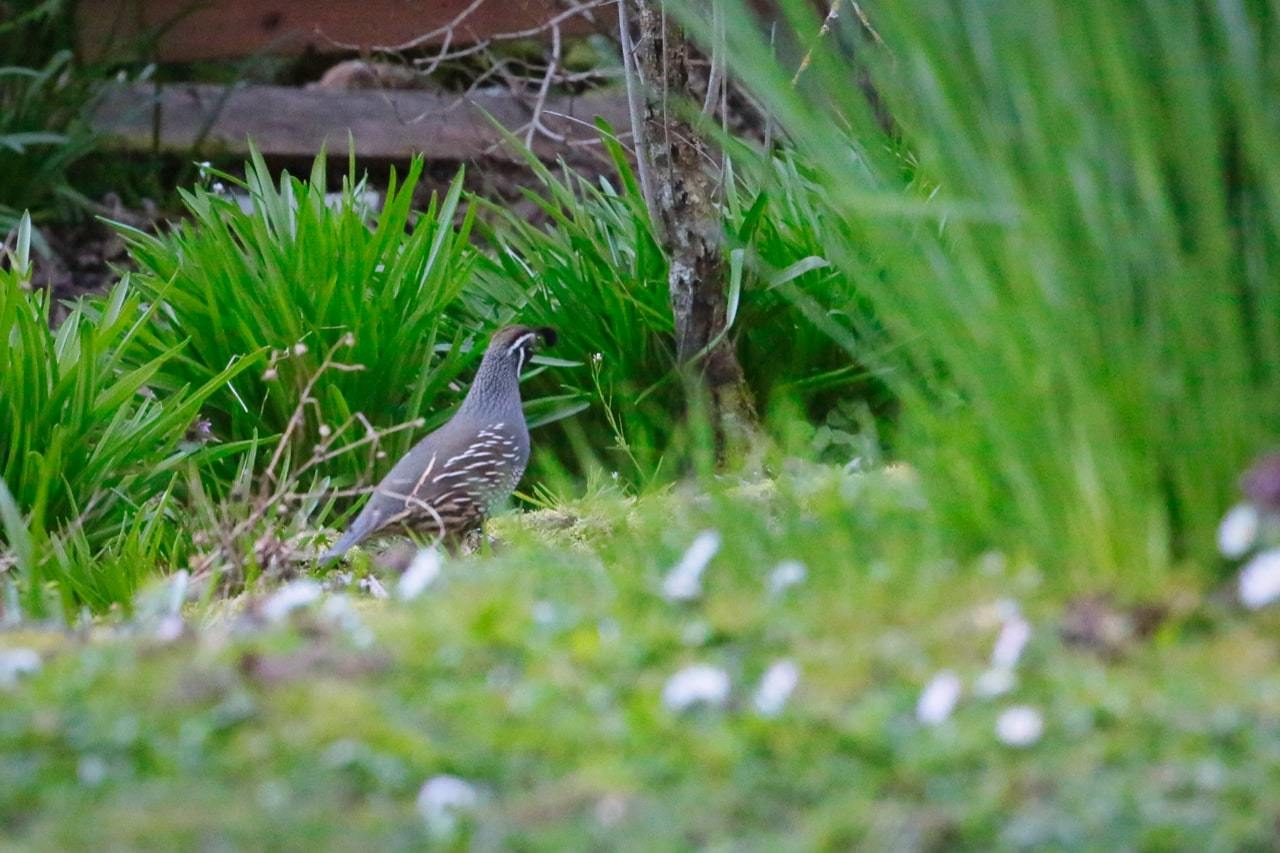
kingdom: Animalia
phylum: Chordata
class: Aves
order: Galliformes
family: Odontophoridae
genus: Callipepla
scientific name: Callipepla californica
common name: California quail
